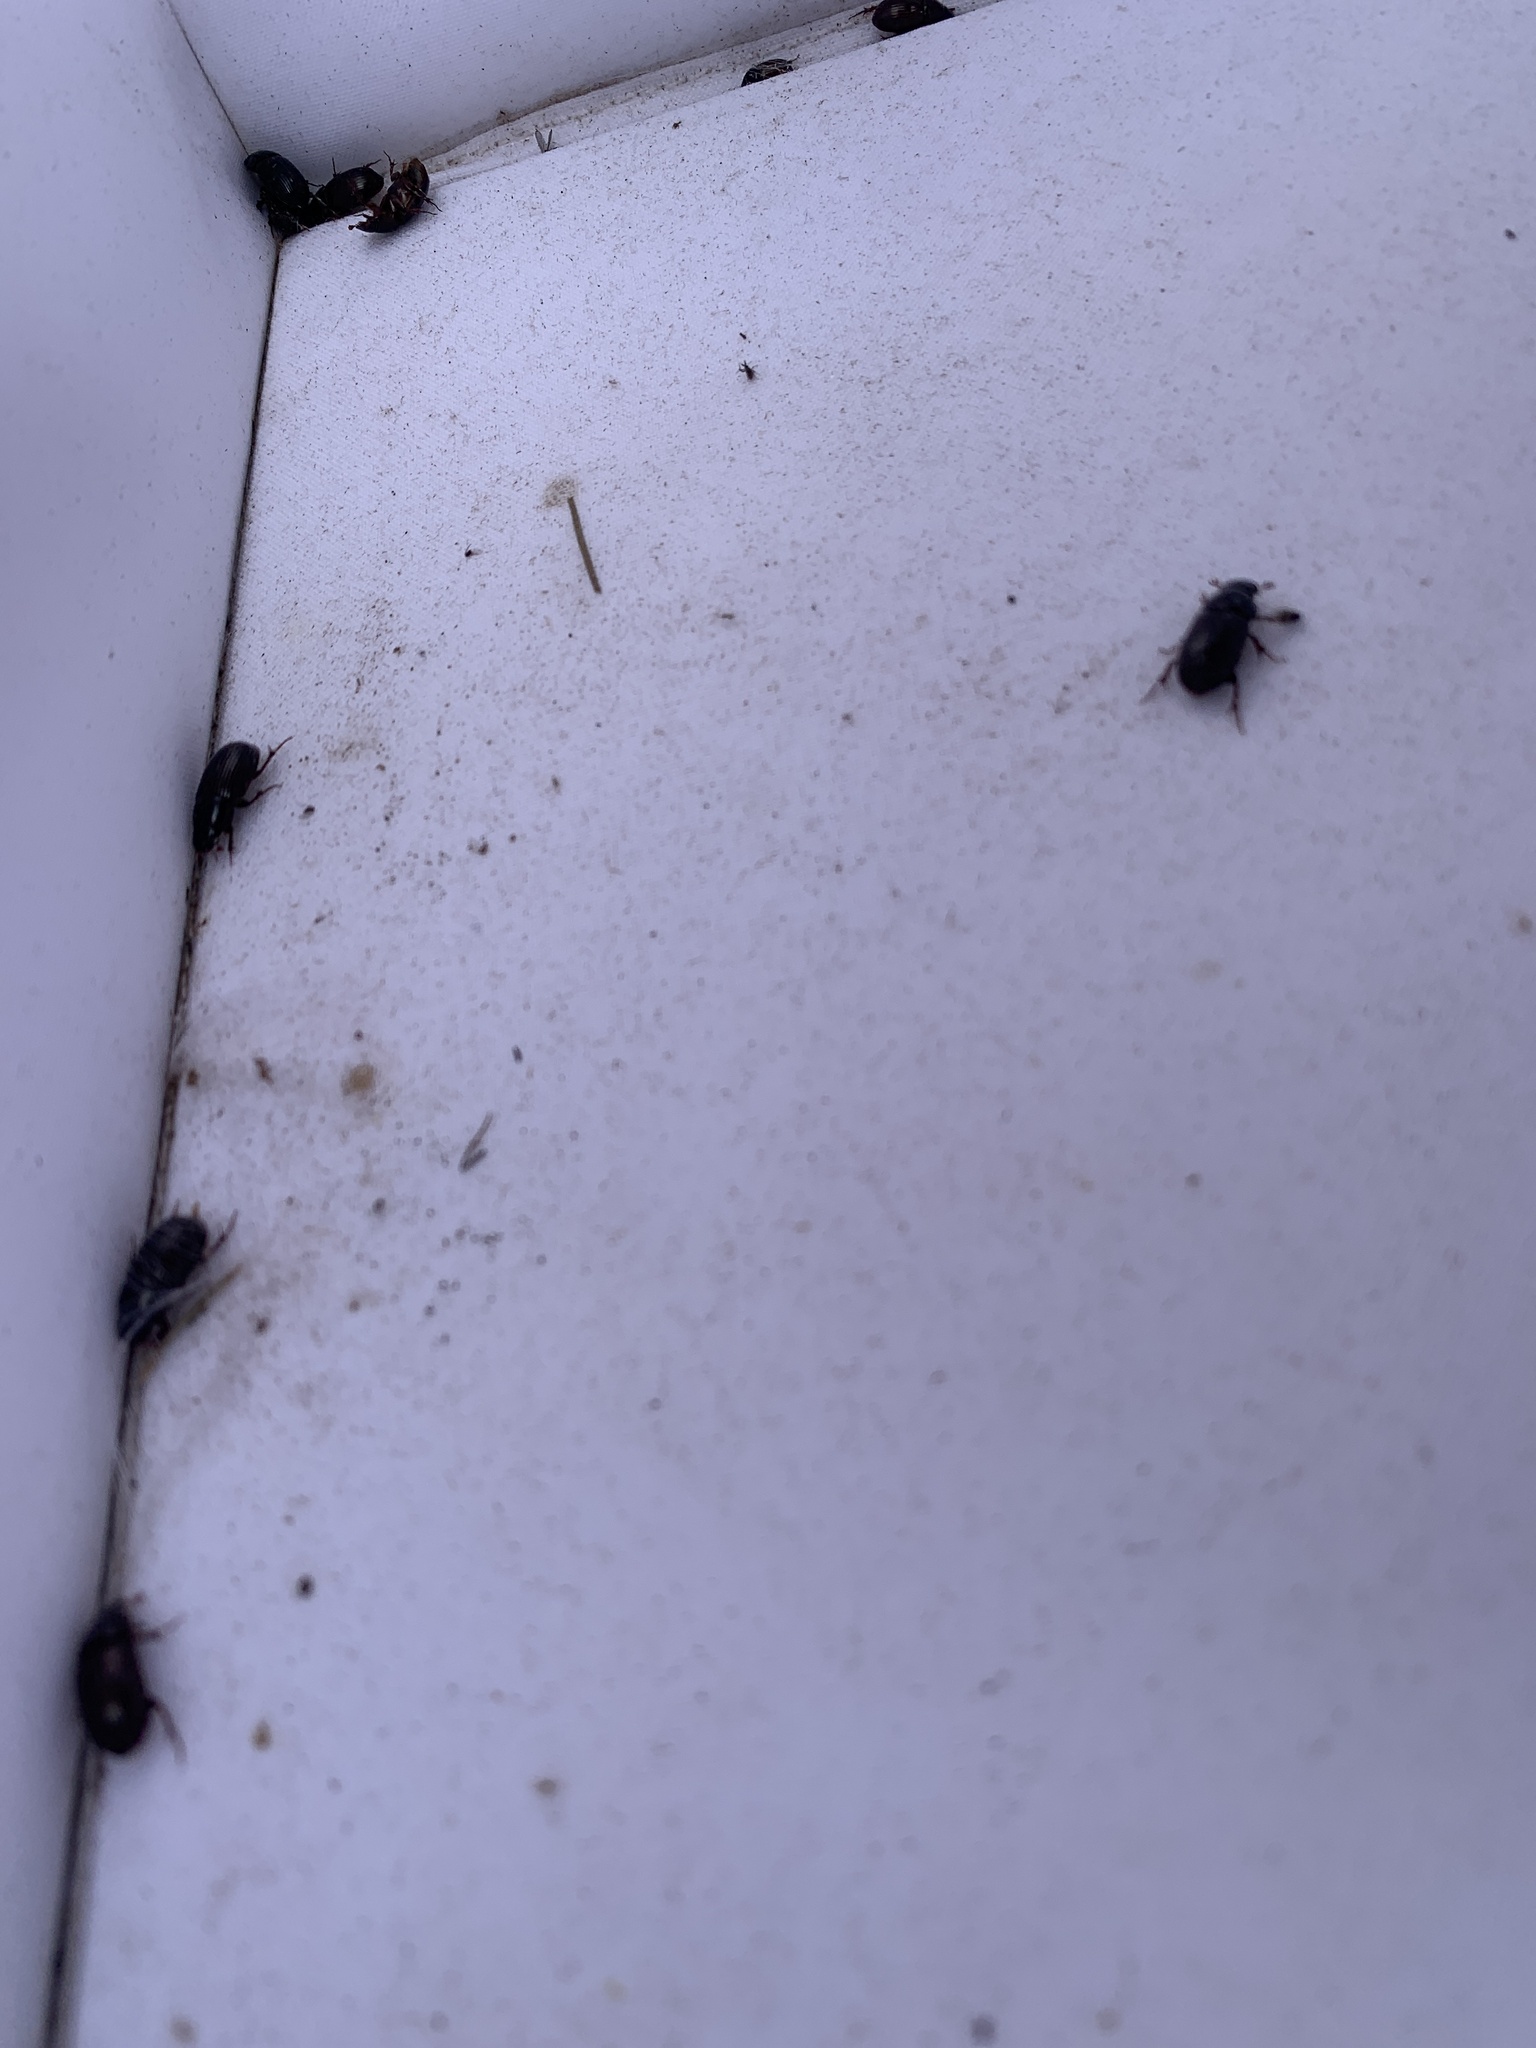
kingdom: Animalia
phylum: Arthropoda
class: Insecta
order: Coleoptera
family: Scarabaeidae
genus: Teuchestes
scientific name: Teuchestes fossor
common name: Digger small dung beetle
